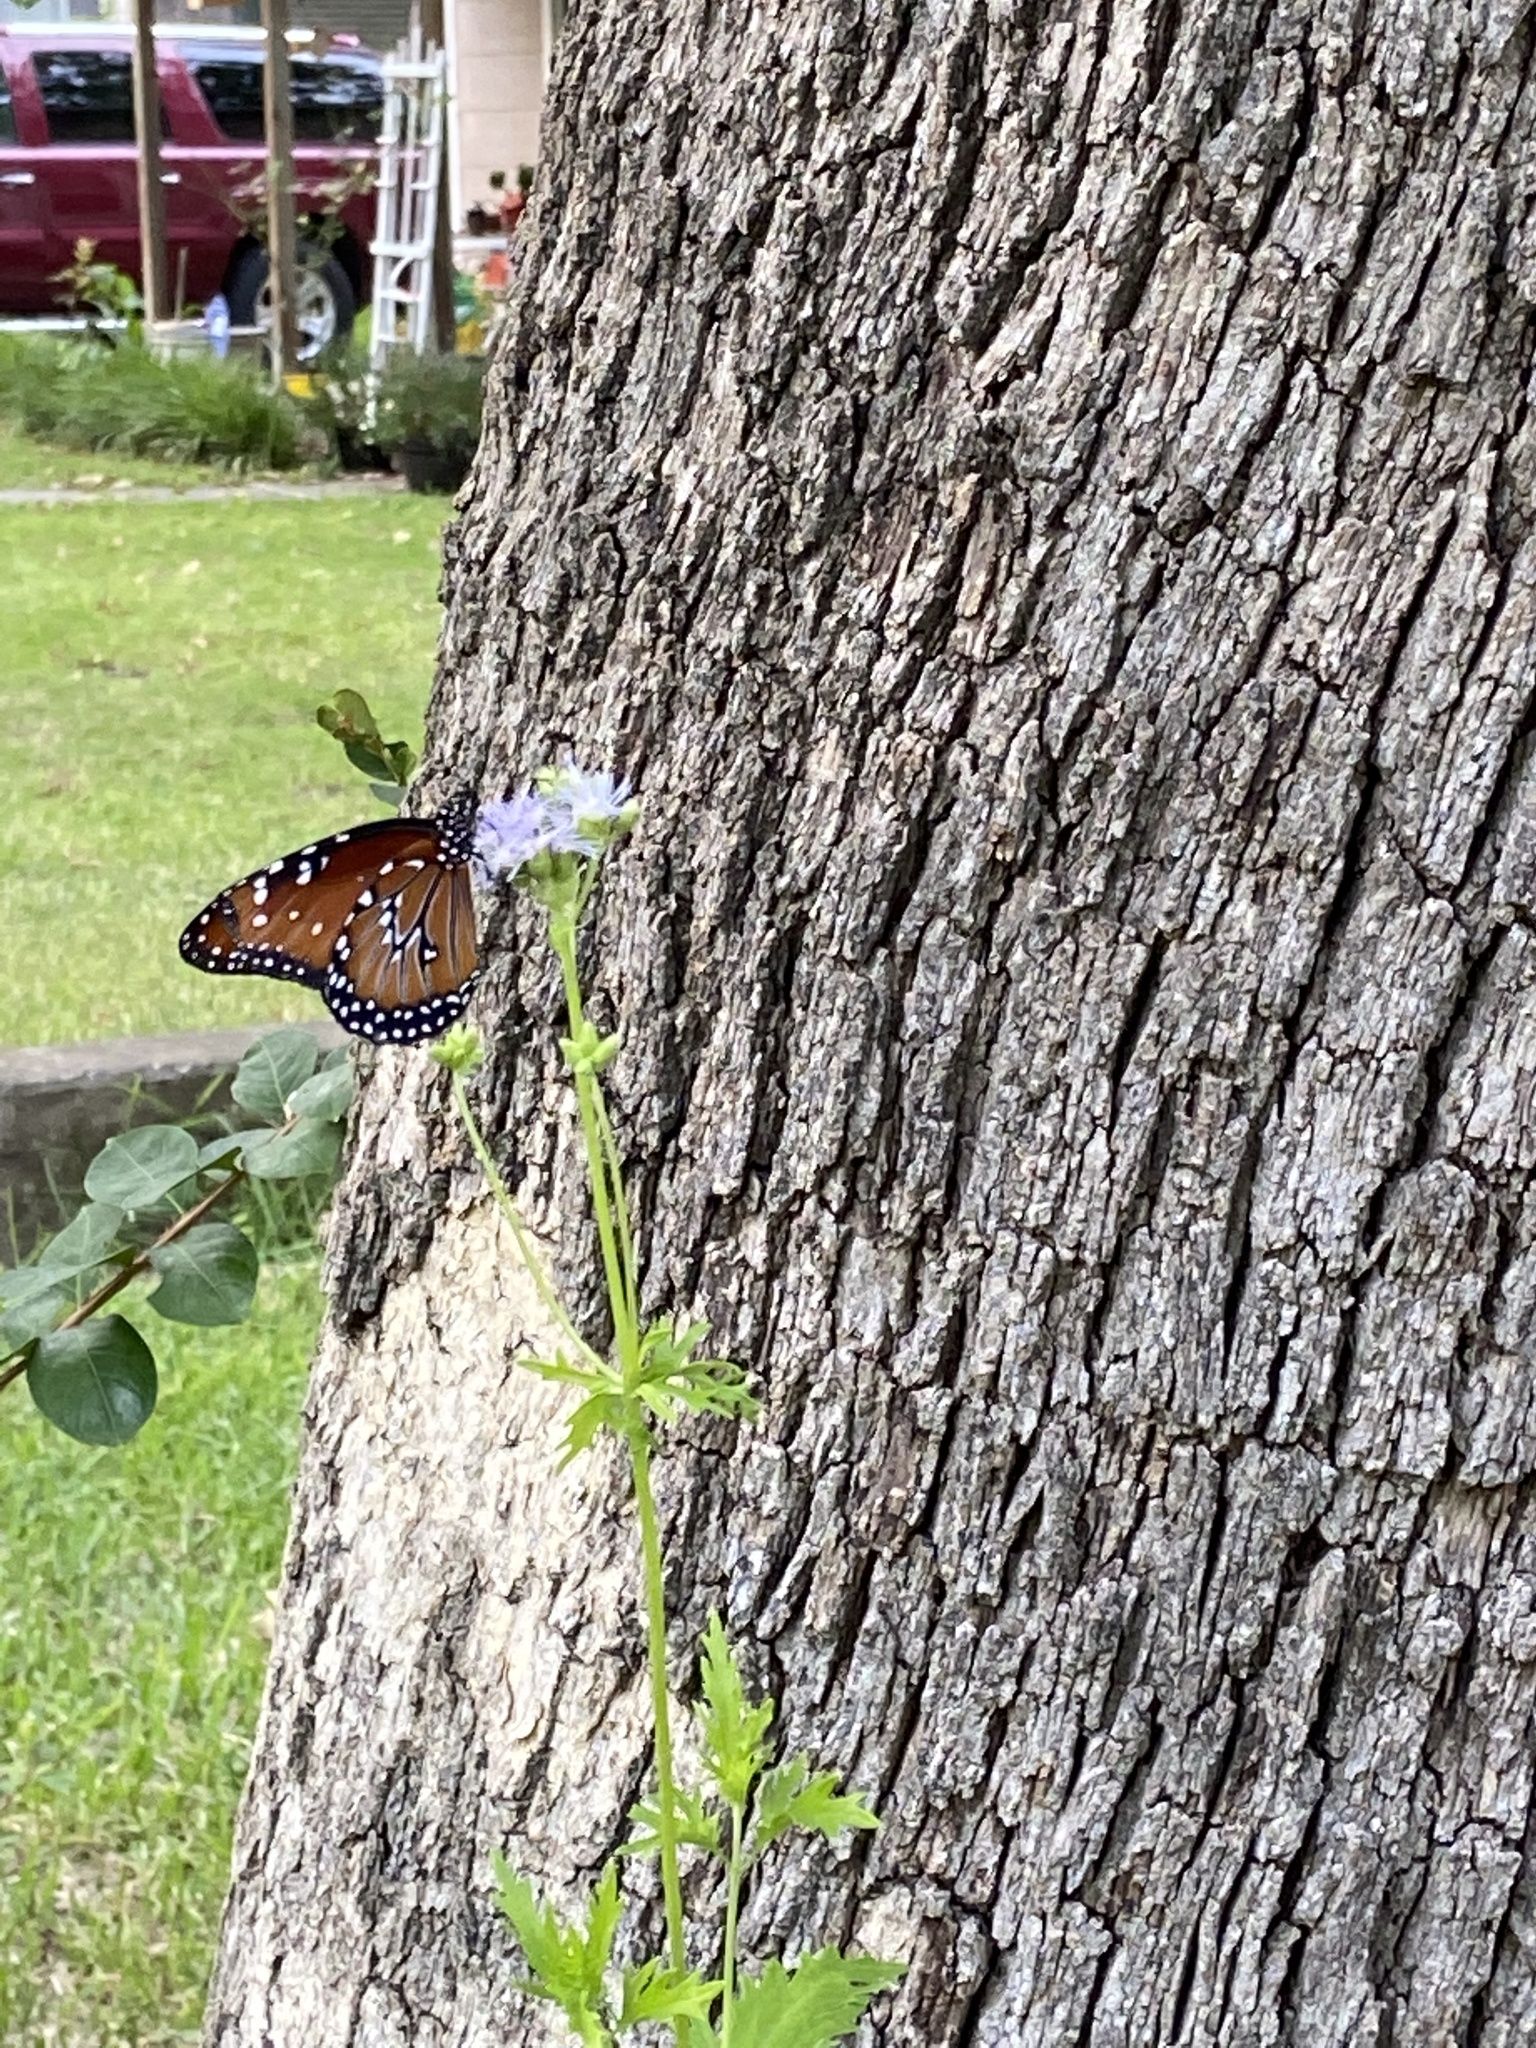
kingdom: Animalia
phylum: Arthropoda
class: Insecta
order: Lepidoptera
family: Nymphalidae
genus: Danaus
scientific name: Danaus gilippus
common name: Queen
